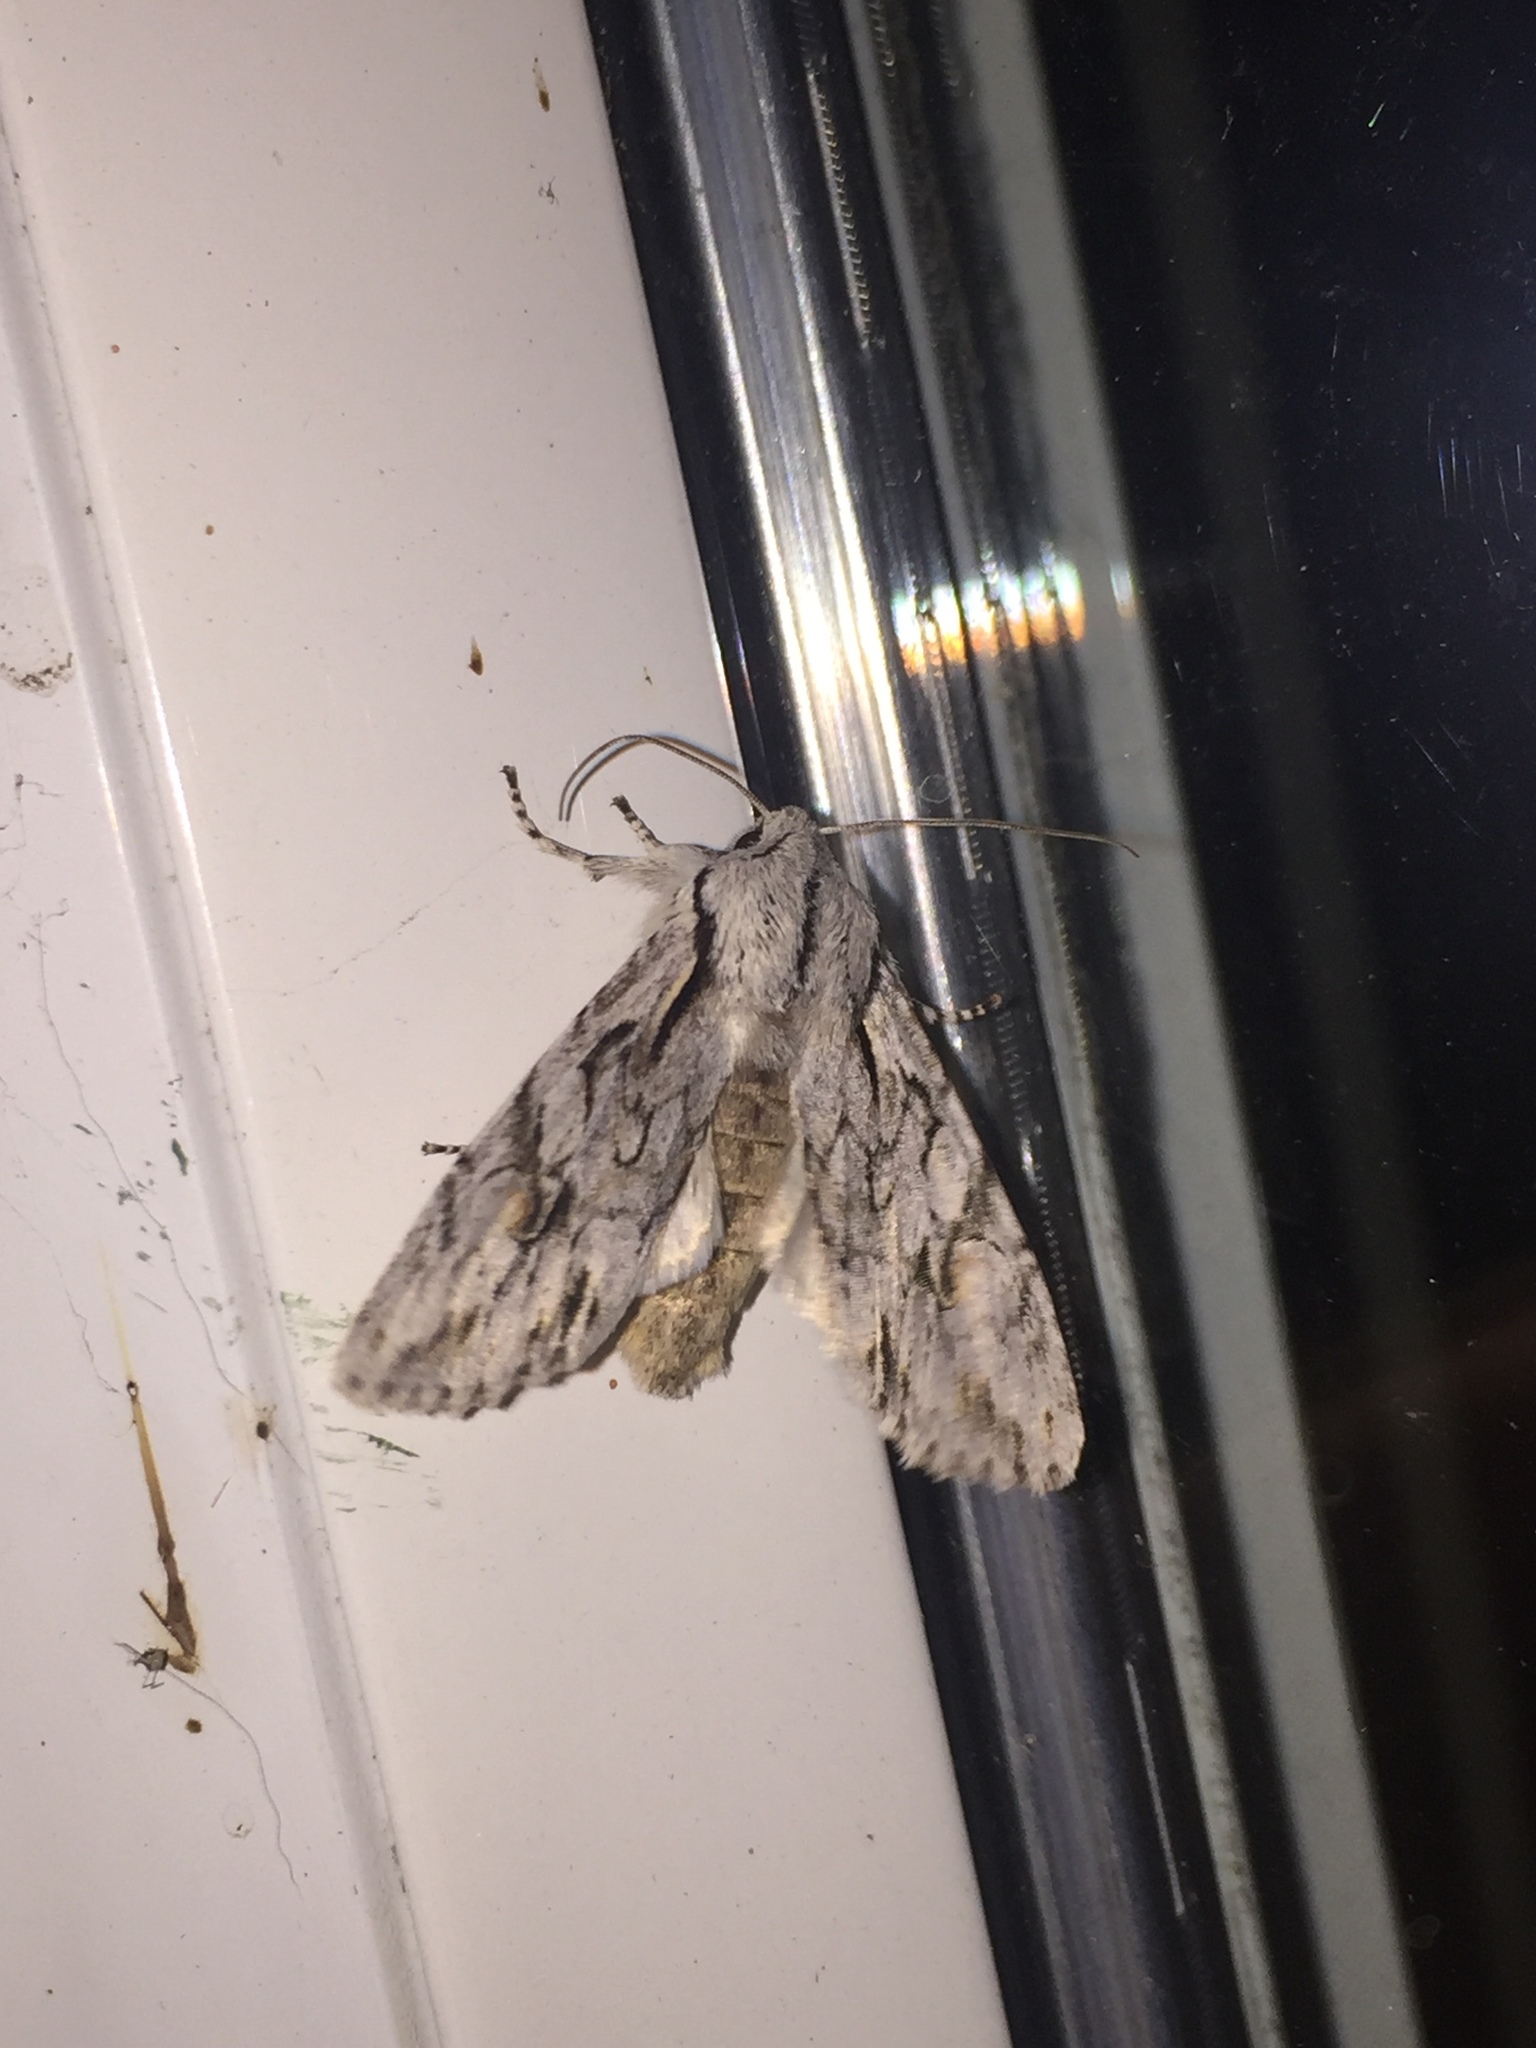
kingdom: Animalia
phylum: Arthropoda
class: Insecta
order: Lepidoptera
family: Noctuidae
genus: Egira
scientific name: Egira crucialis
